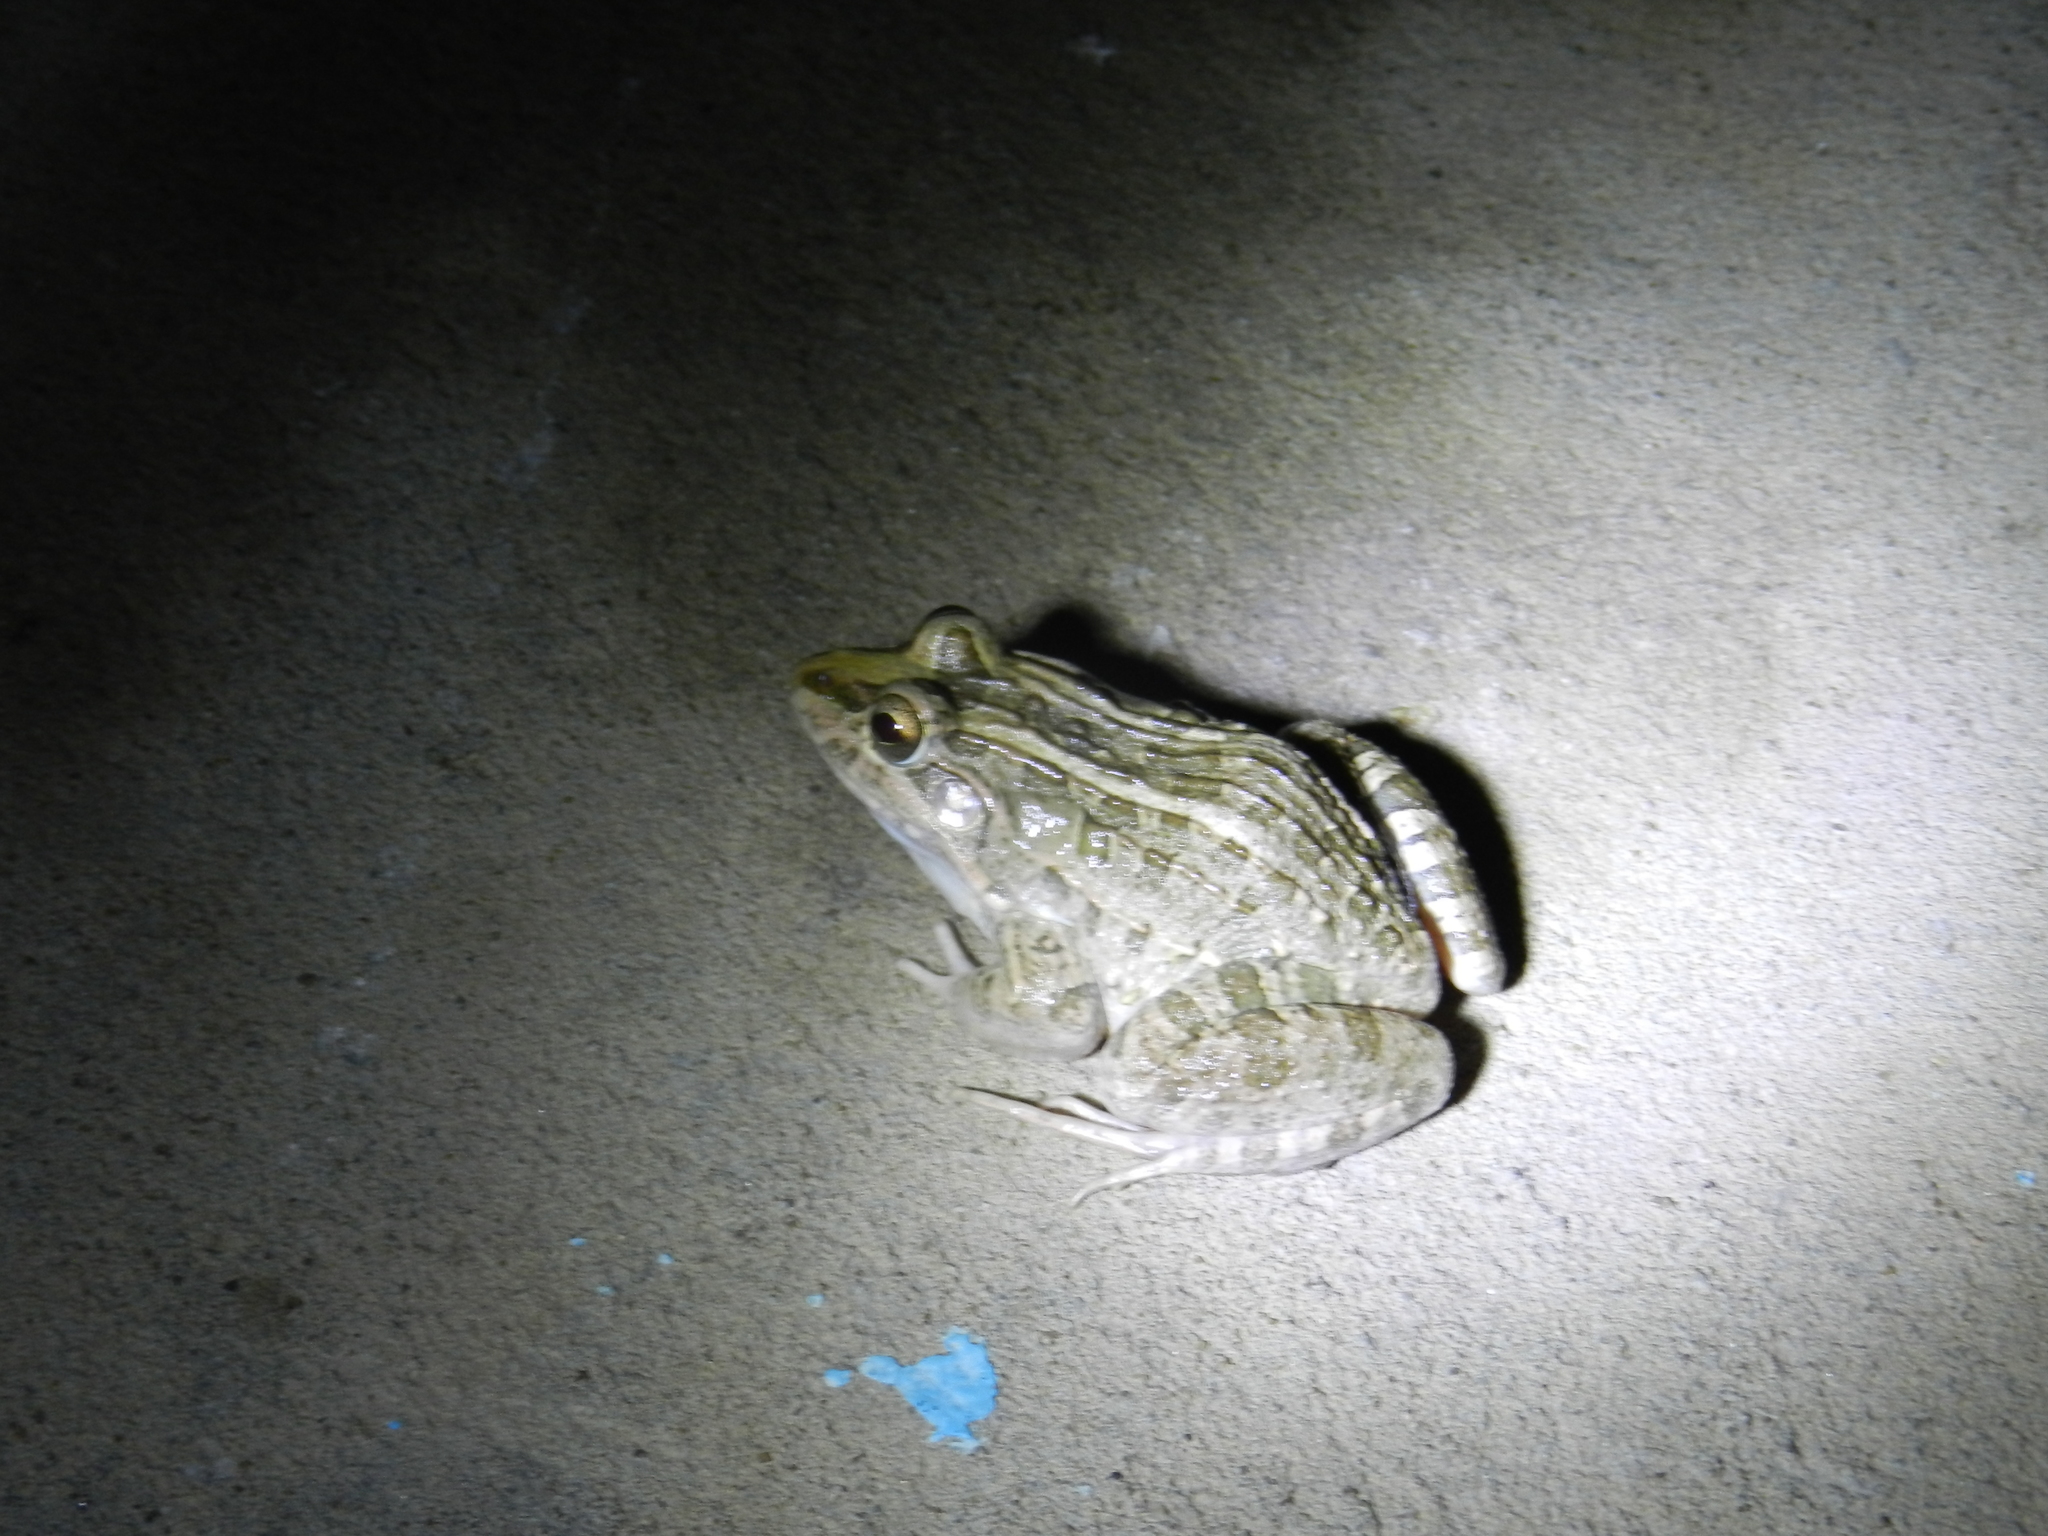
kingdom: Animalia
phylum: Chordata
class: Amphibia
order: Anura
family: Leptodactylidae
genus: Leptodactylus
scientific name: Leptodactylus macrosternum
